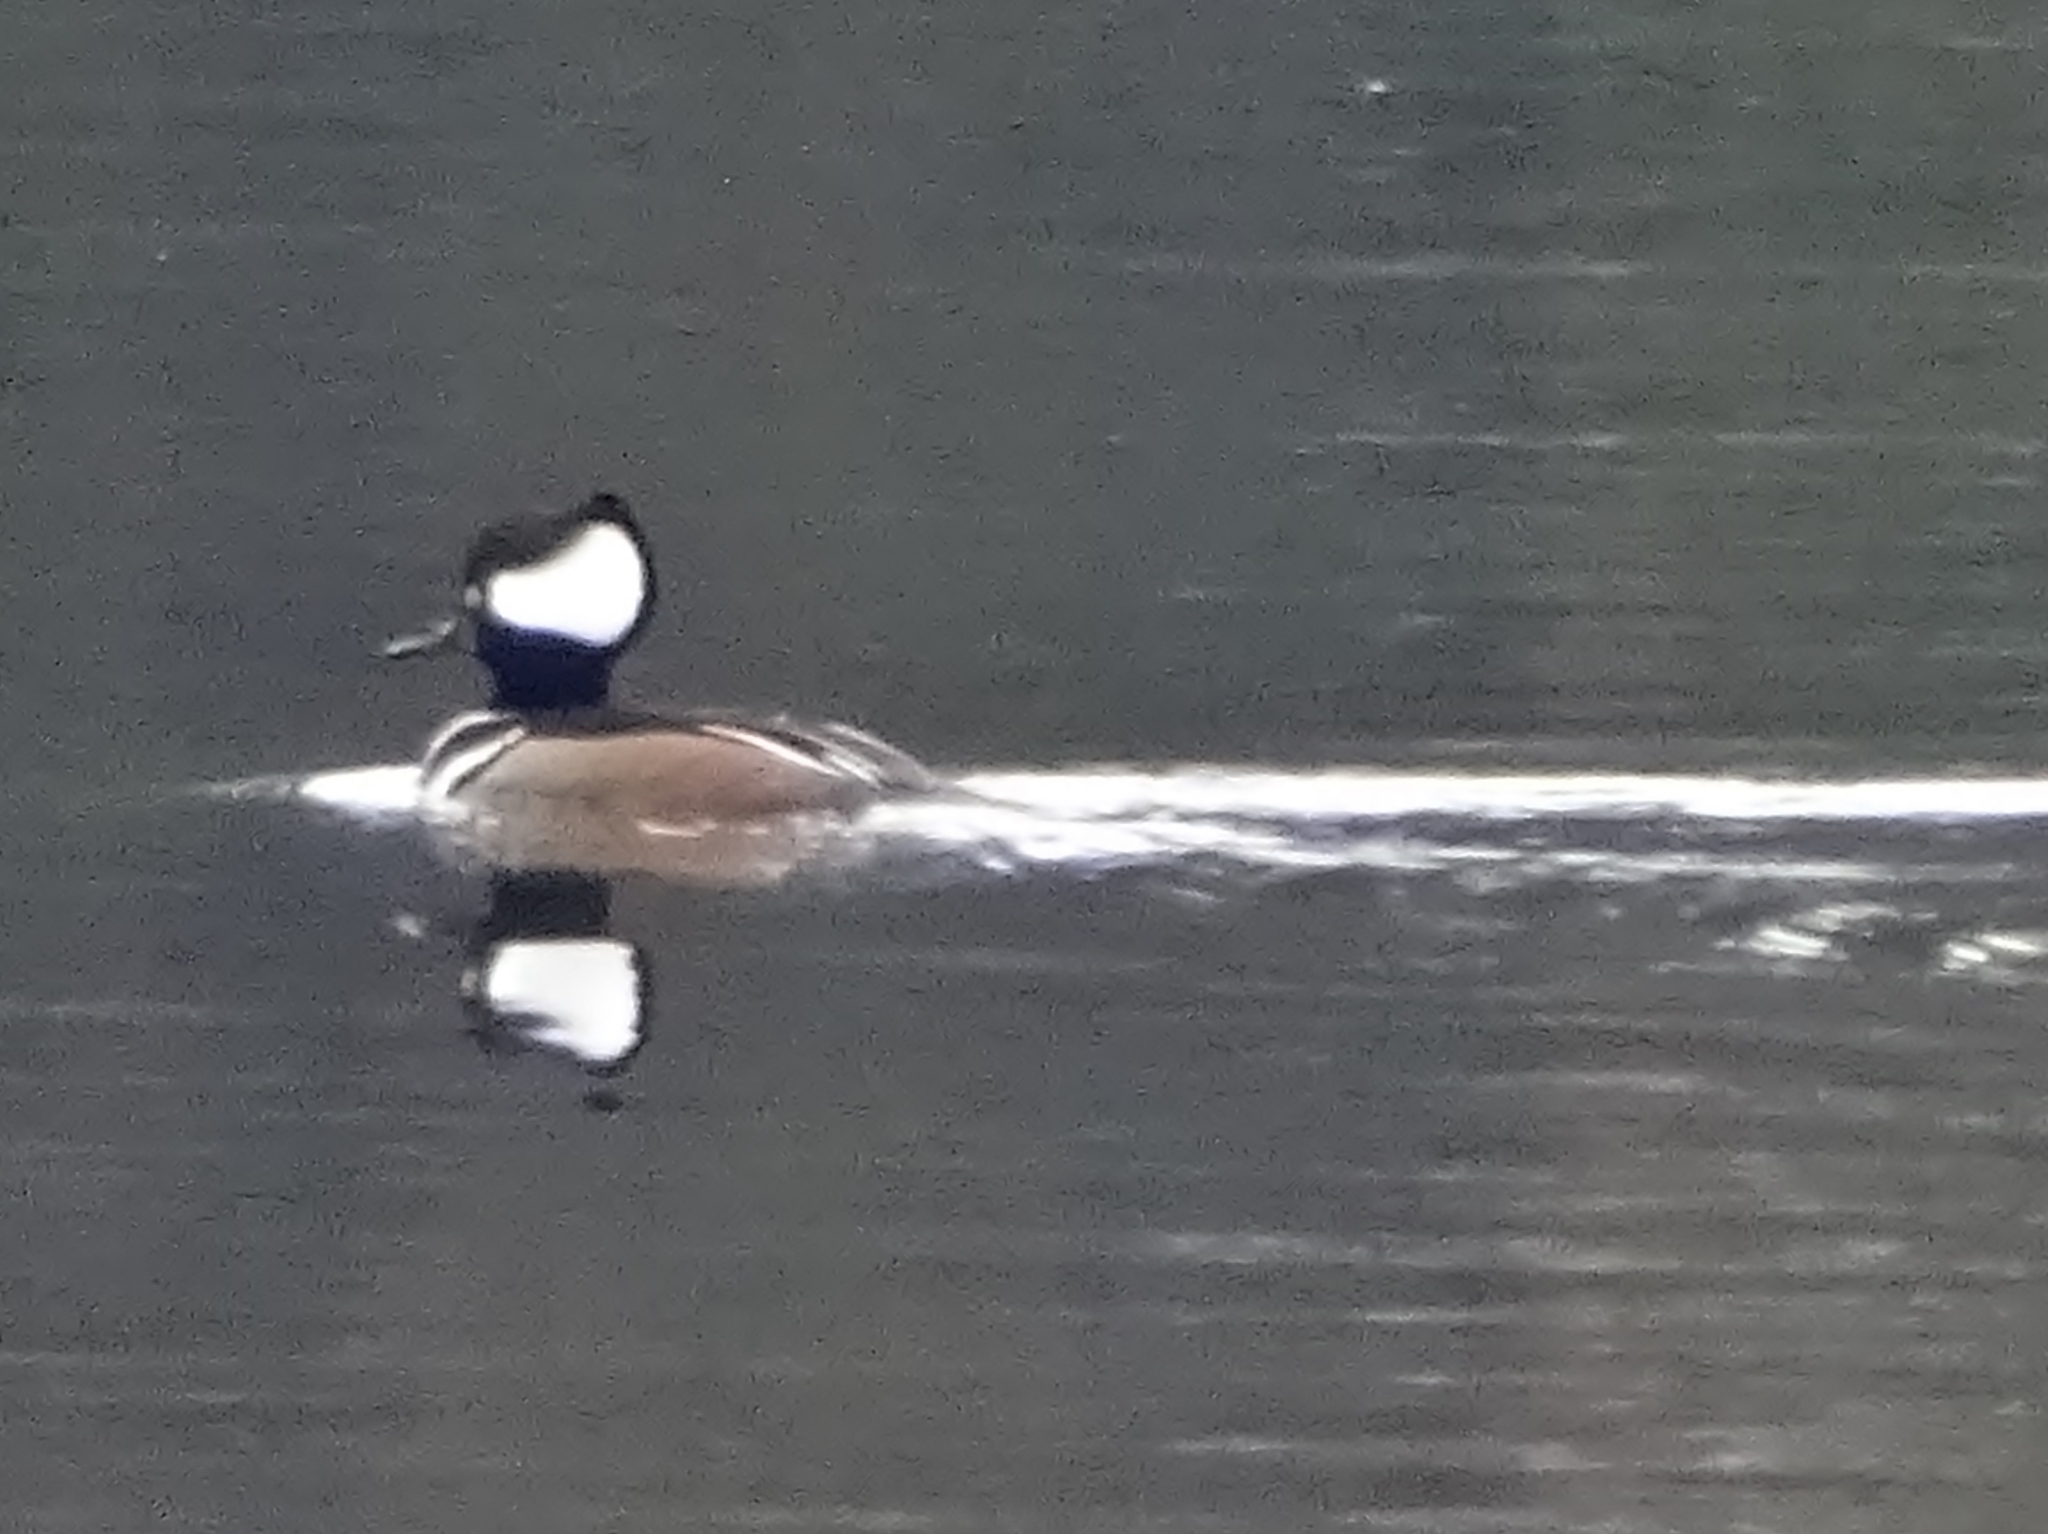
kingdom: Animalia
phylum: Chordata
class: Aves
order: Anseriformes
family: Anatidae
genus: Lophodytes
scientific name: Lophodytes cucullatus
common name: Hooded merganser
